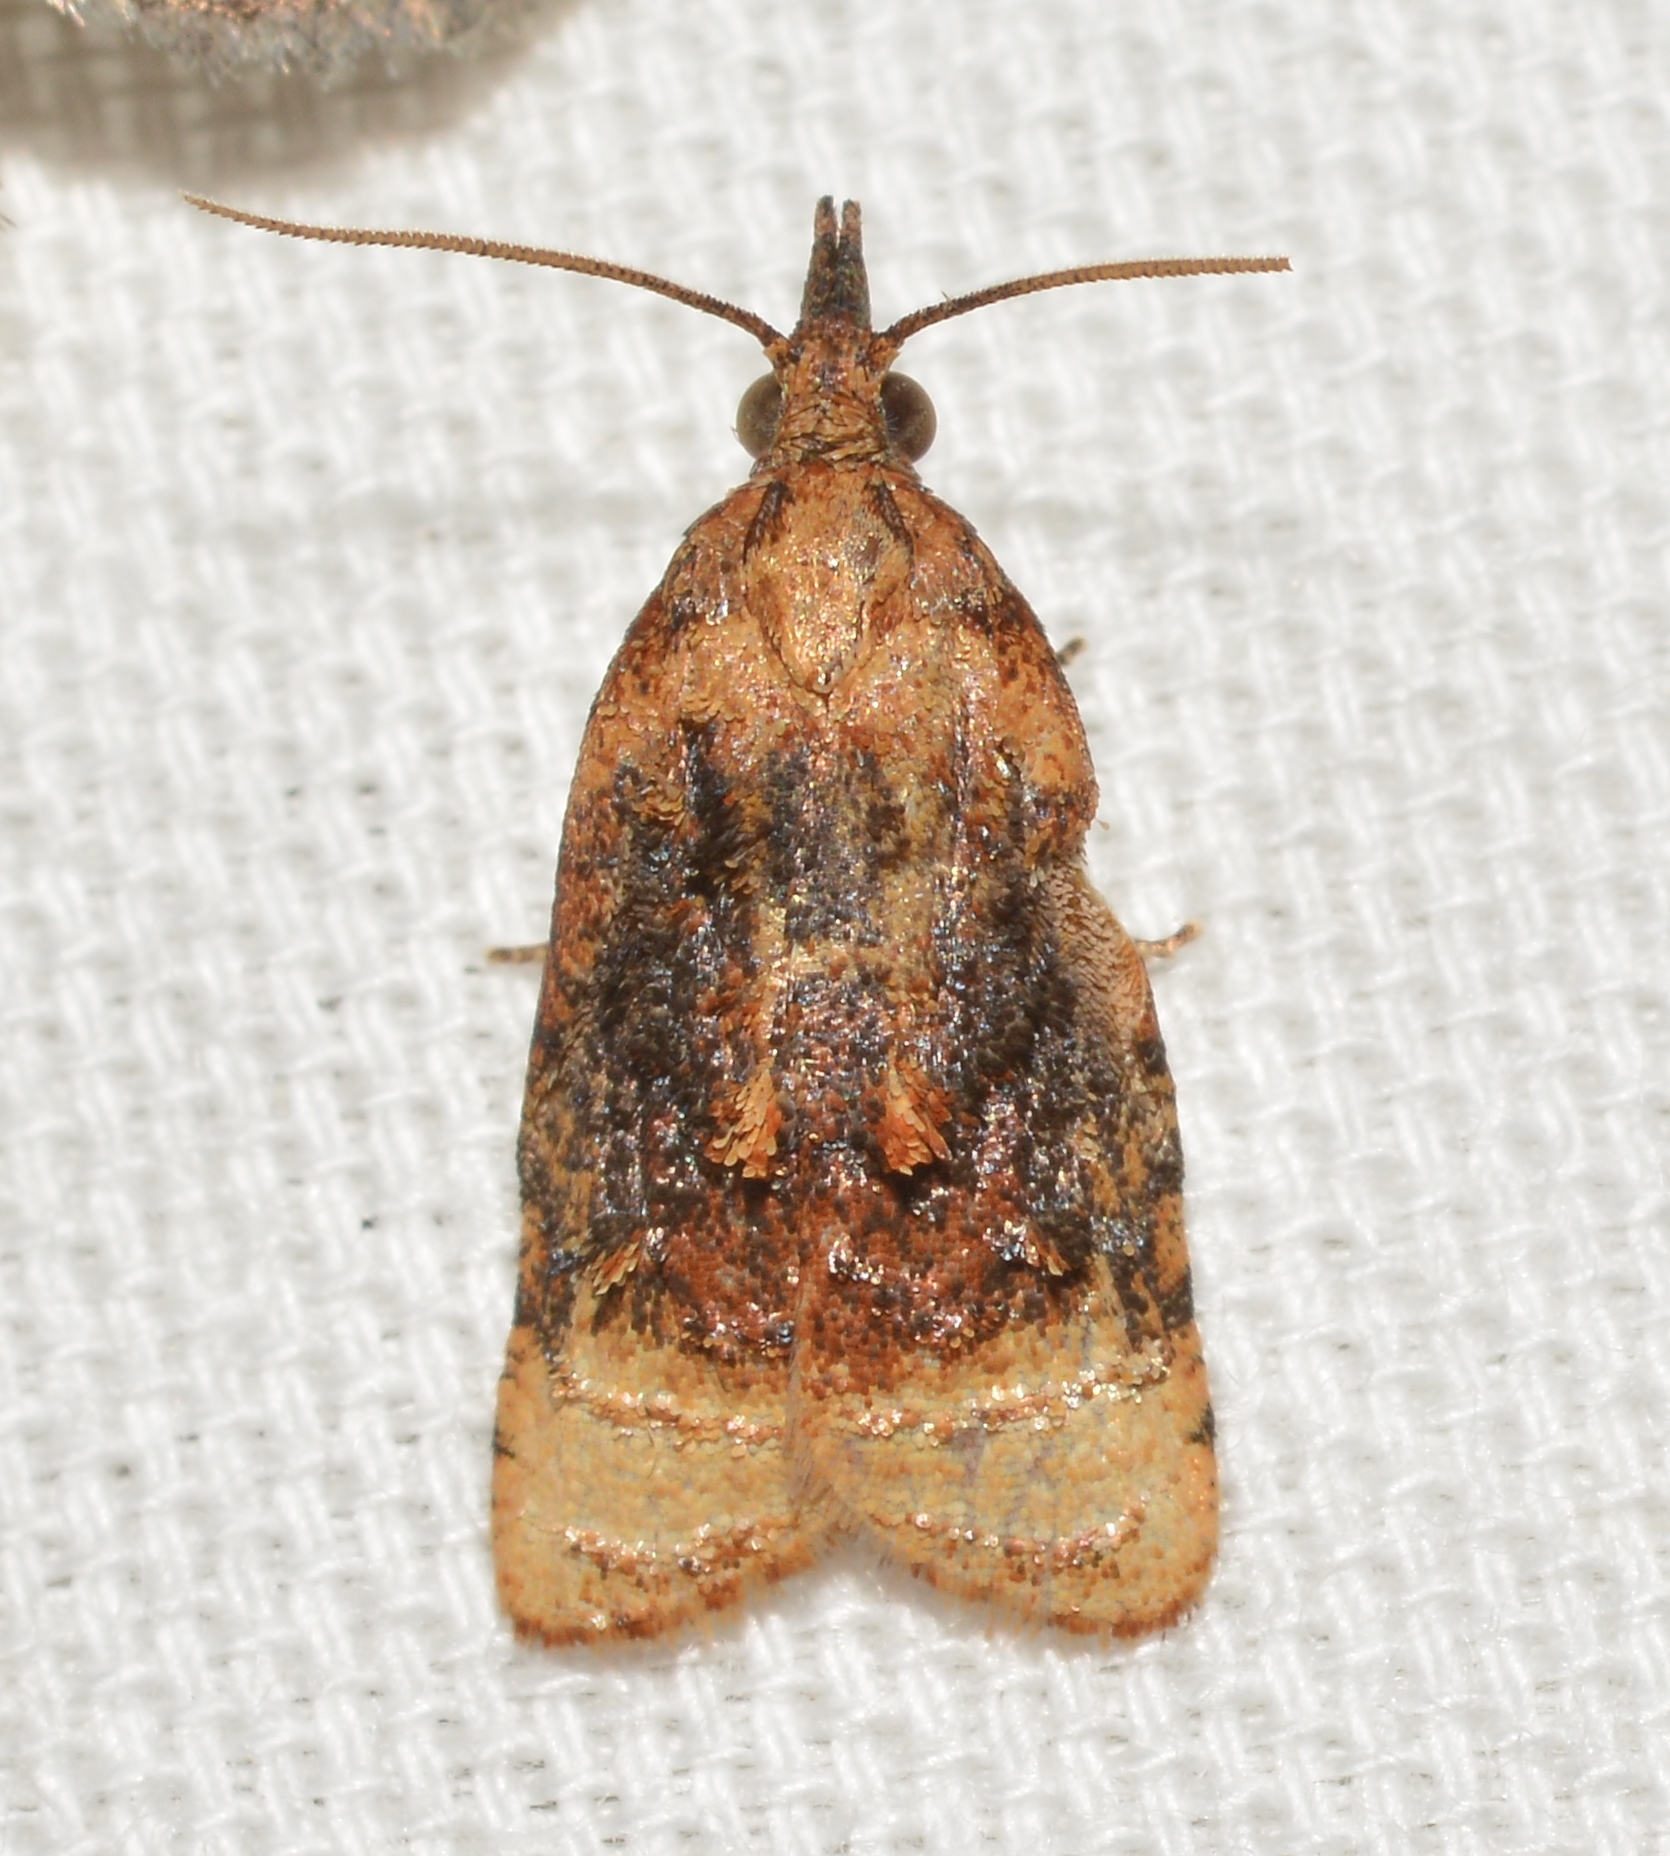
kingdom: Animalia
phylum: Arthropoda
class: Insecta
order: Lepidoptera
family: Tortricidae
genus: Platynota
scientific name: Platynota flavedana
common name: Black-shaded platynota moth
